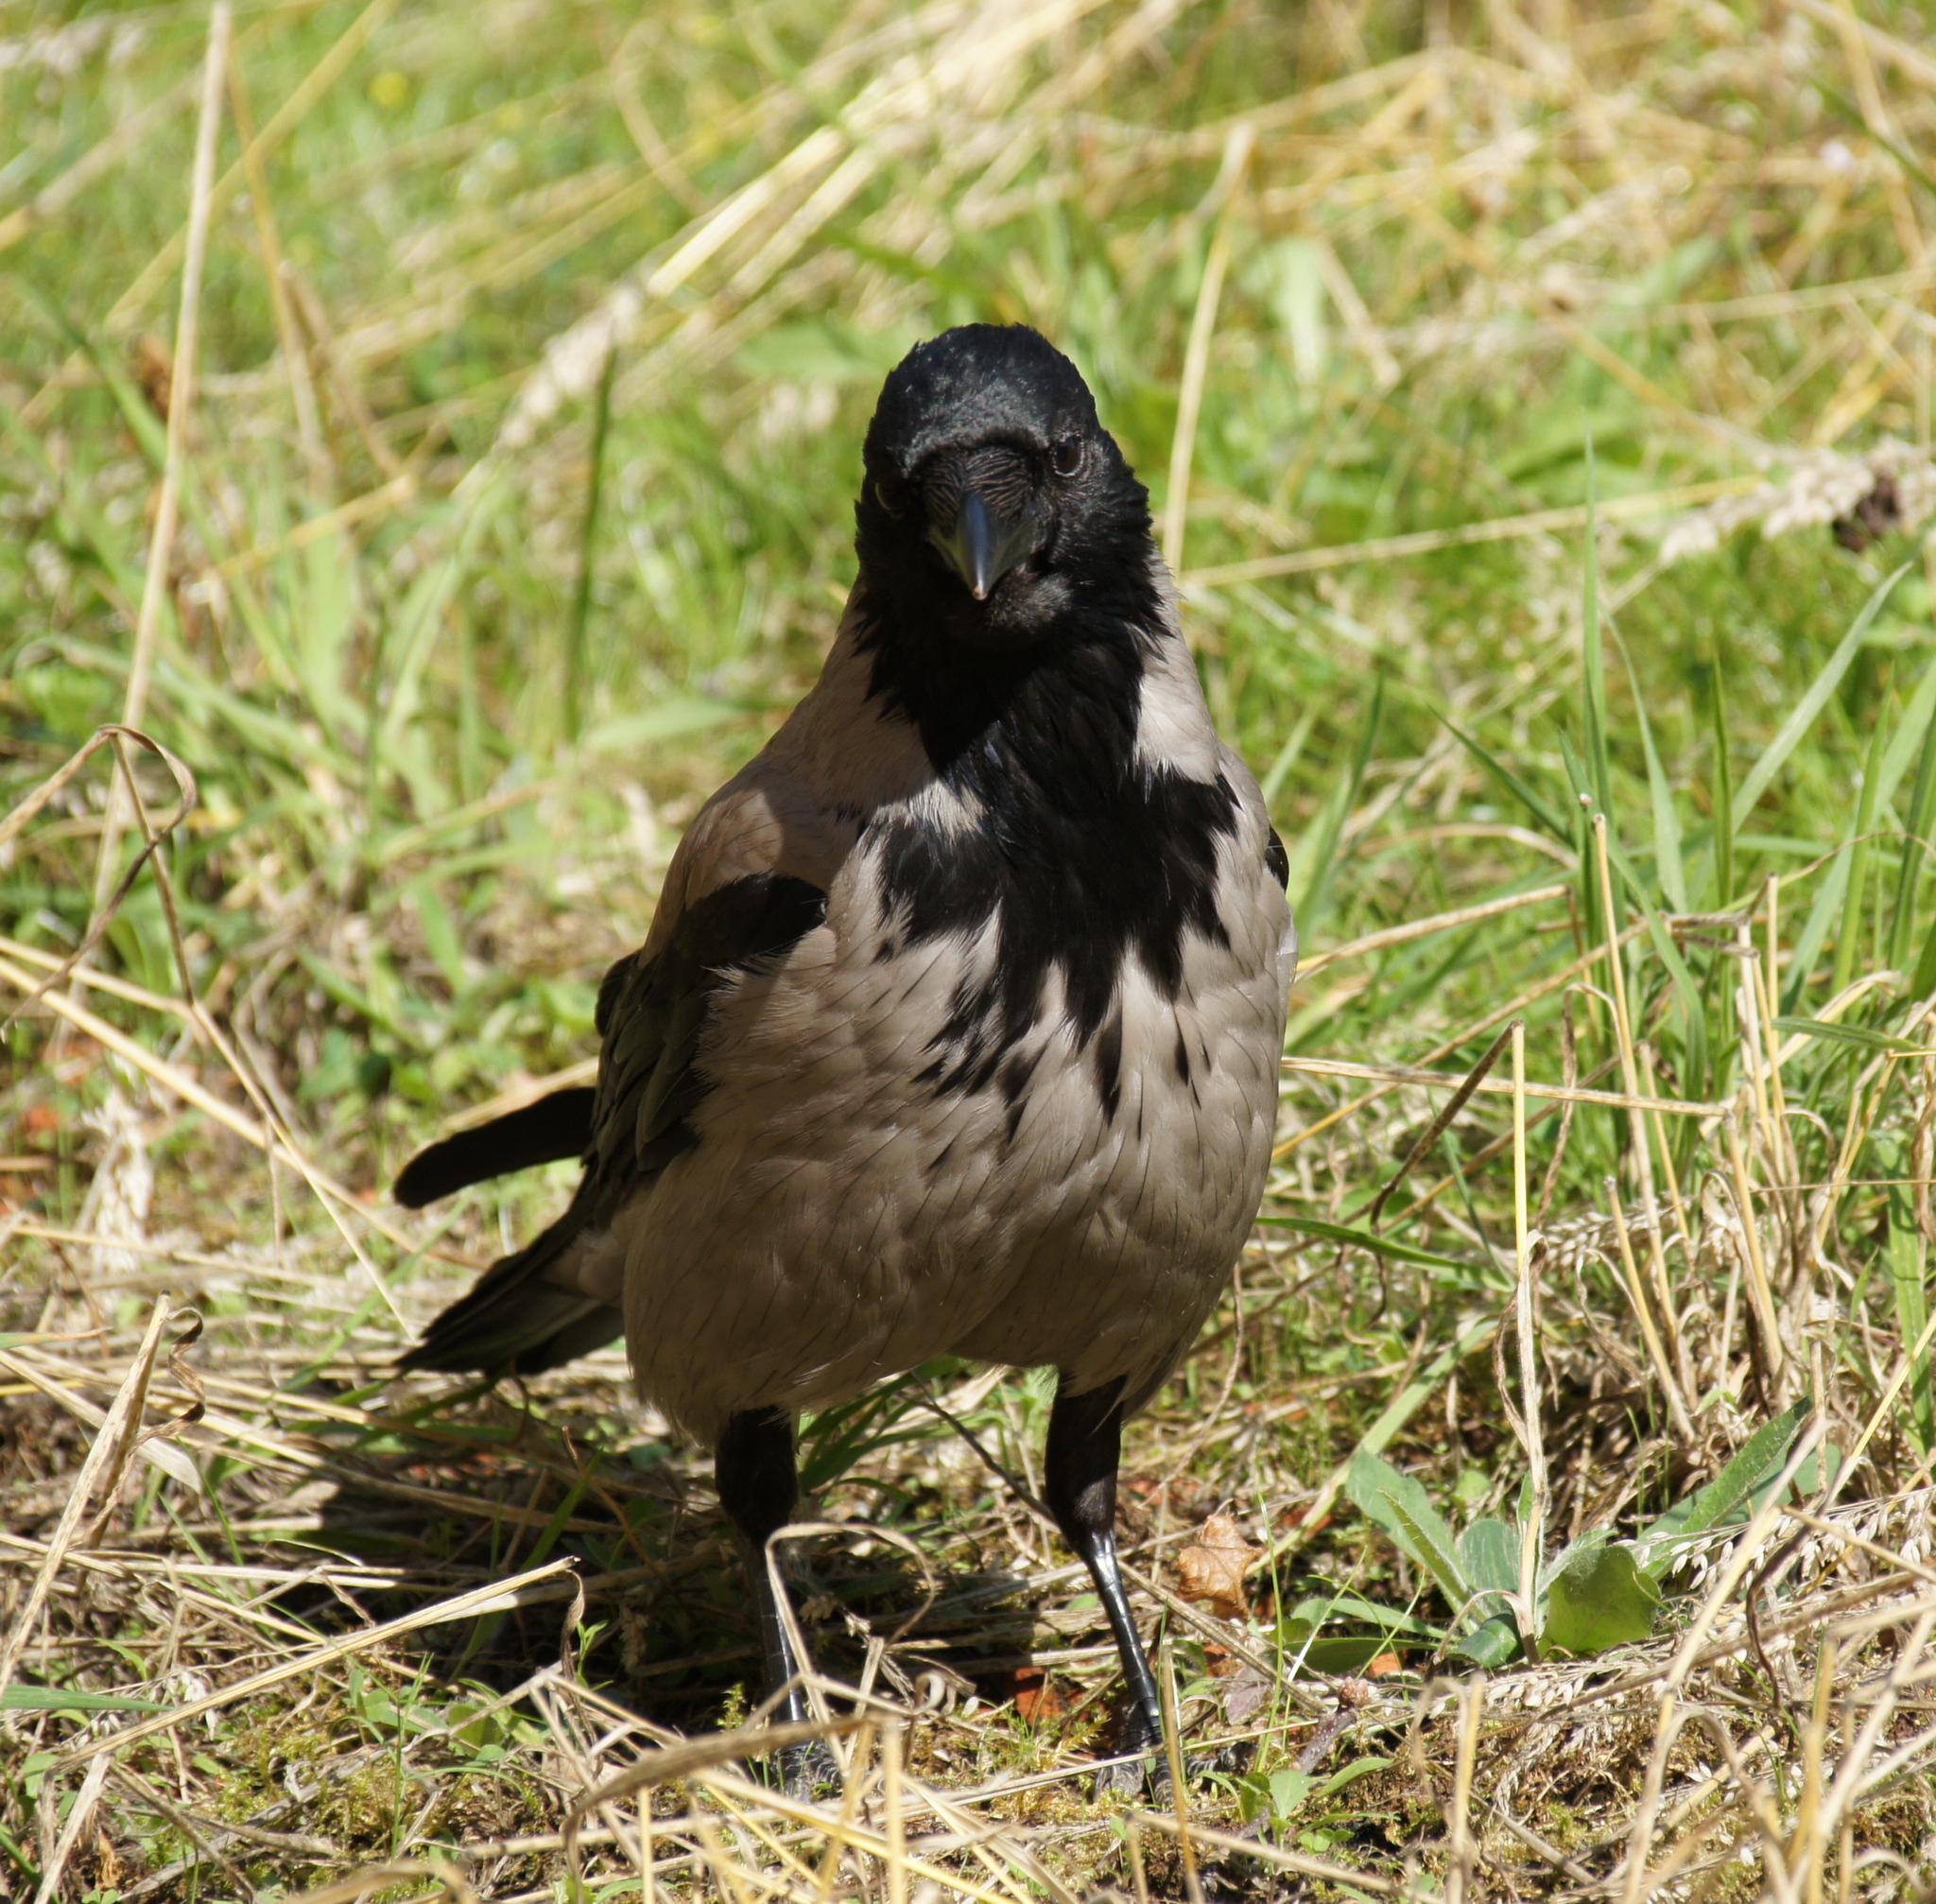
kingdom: Animalia
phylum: Chordata
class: Aves
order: Passeriformes
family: Corvidae
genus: Corvus
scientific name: Corvus cornix
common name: Hooded crow
